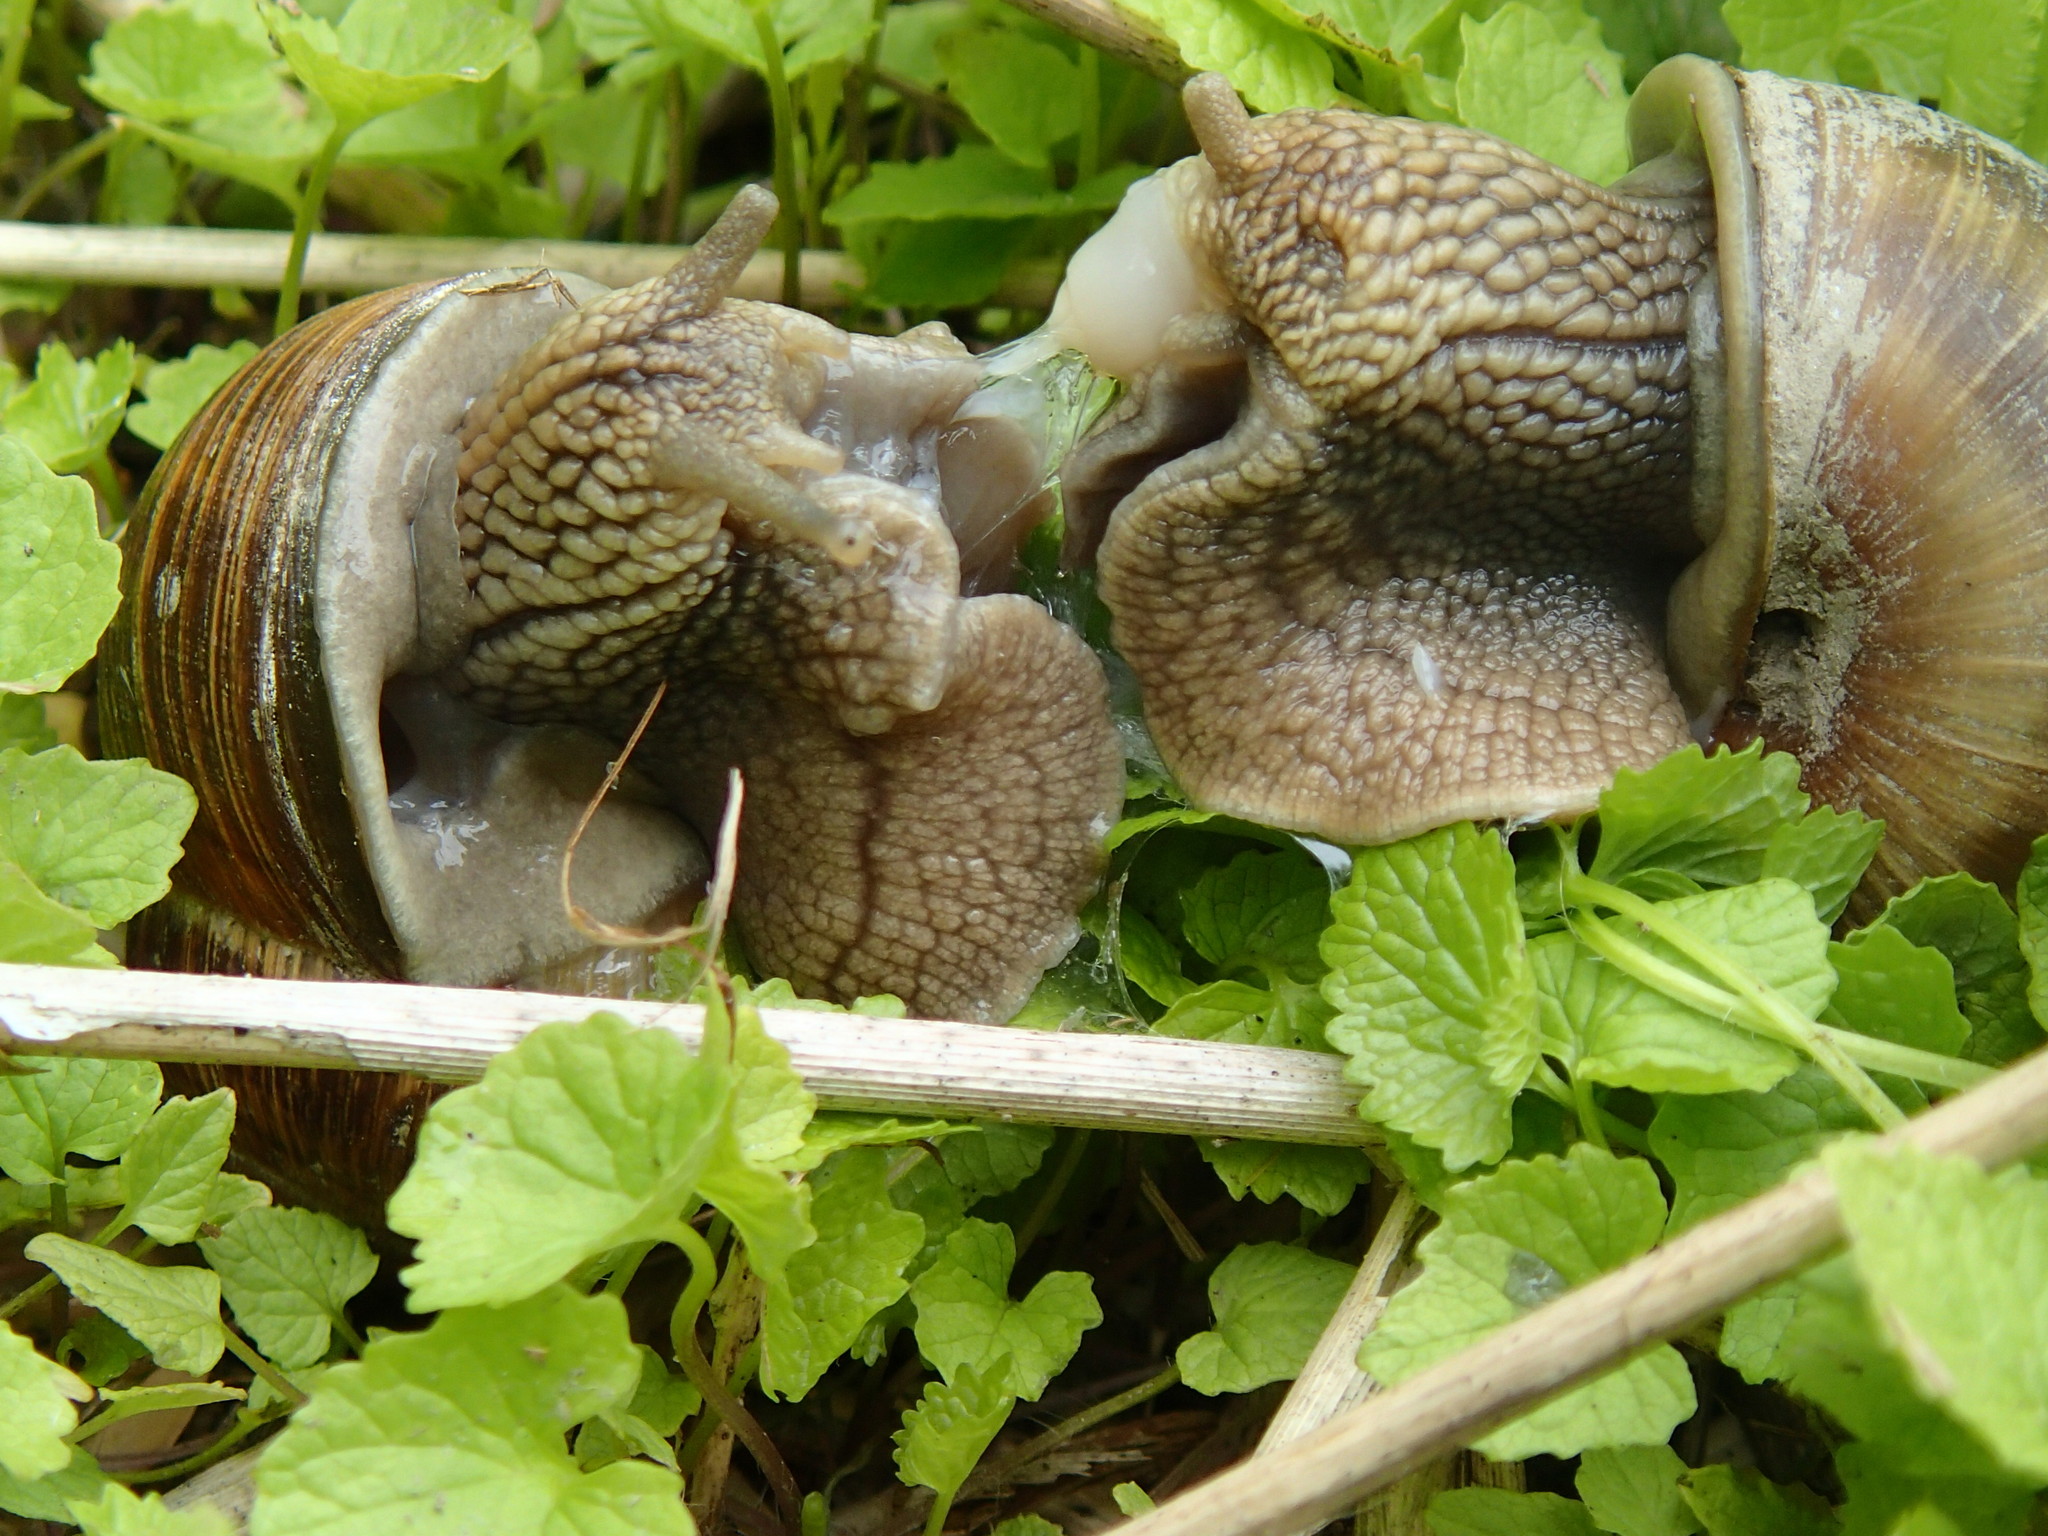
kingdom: Animalia
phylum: Mollusca
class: Gastropoda
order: Stylommatophora
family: Helicidae
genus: Helix
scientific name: Helix pomatia
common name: Roman snail
